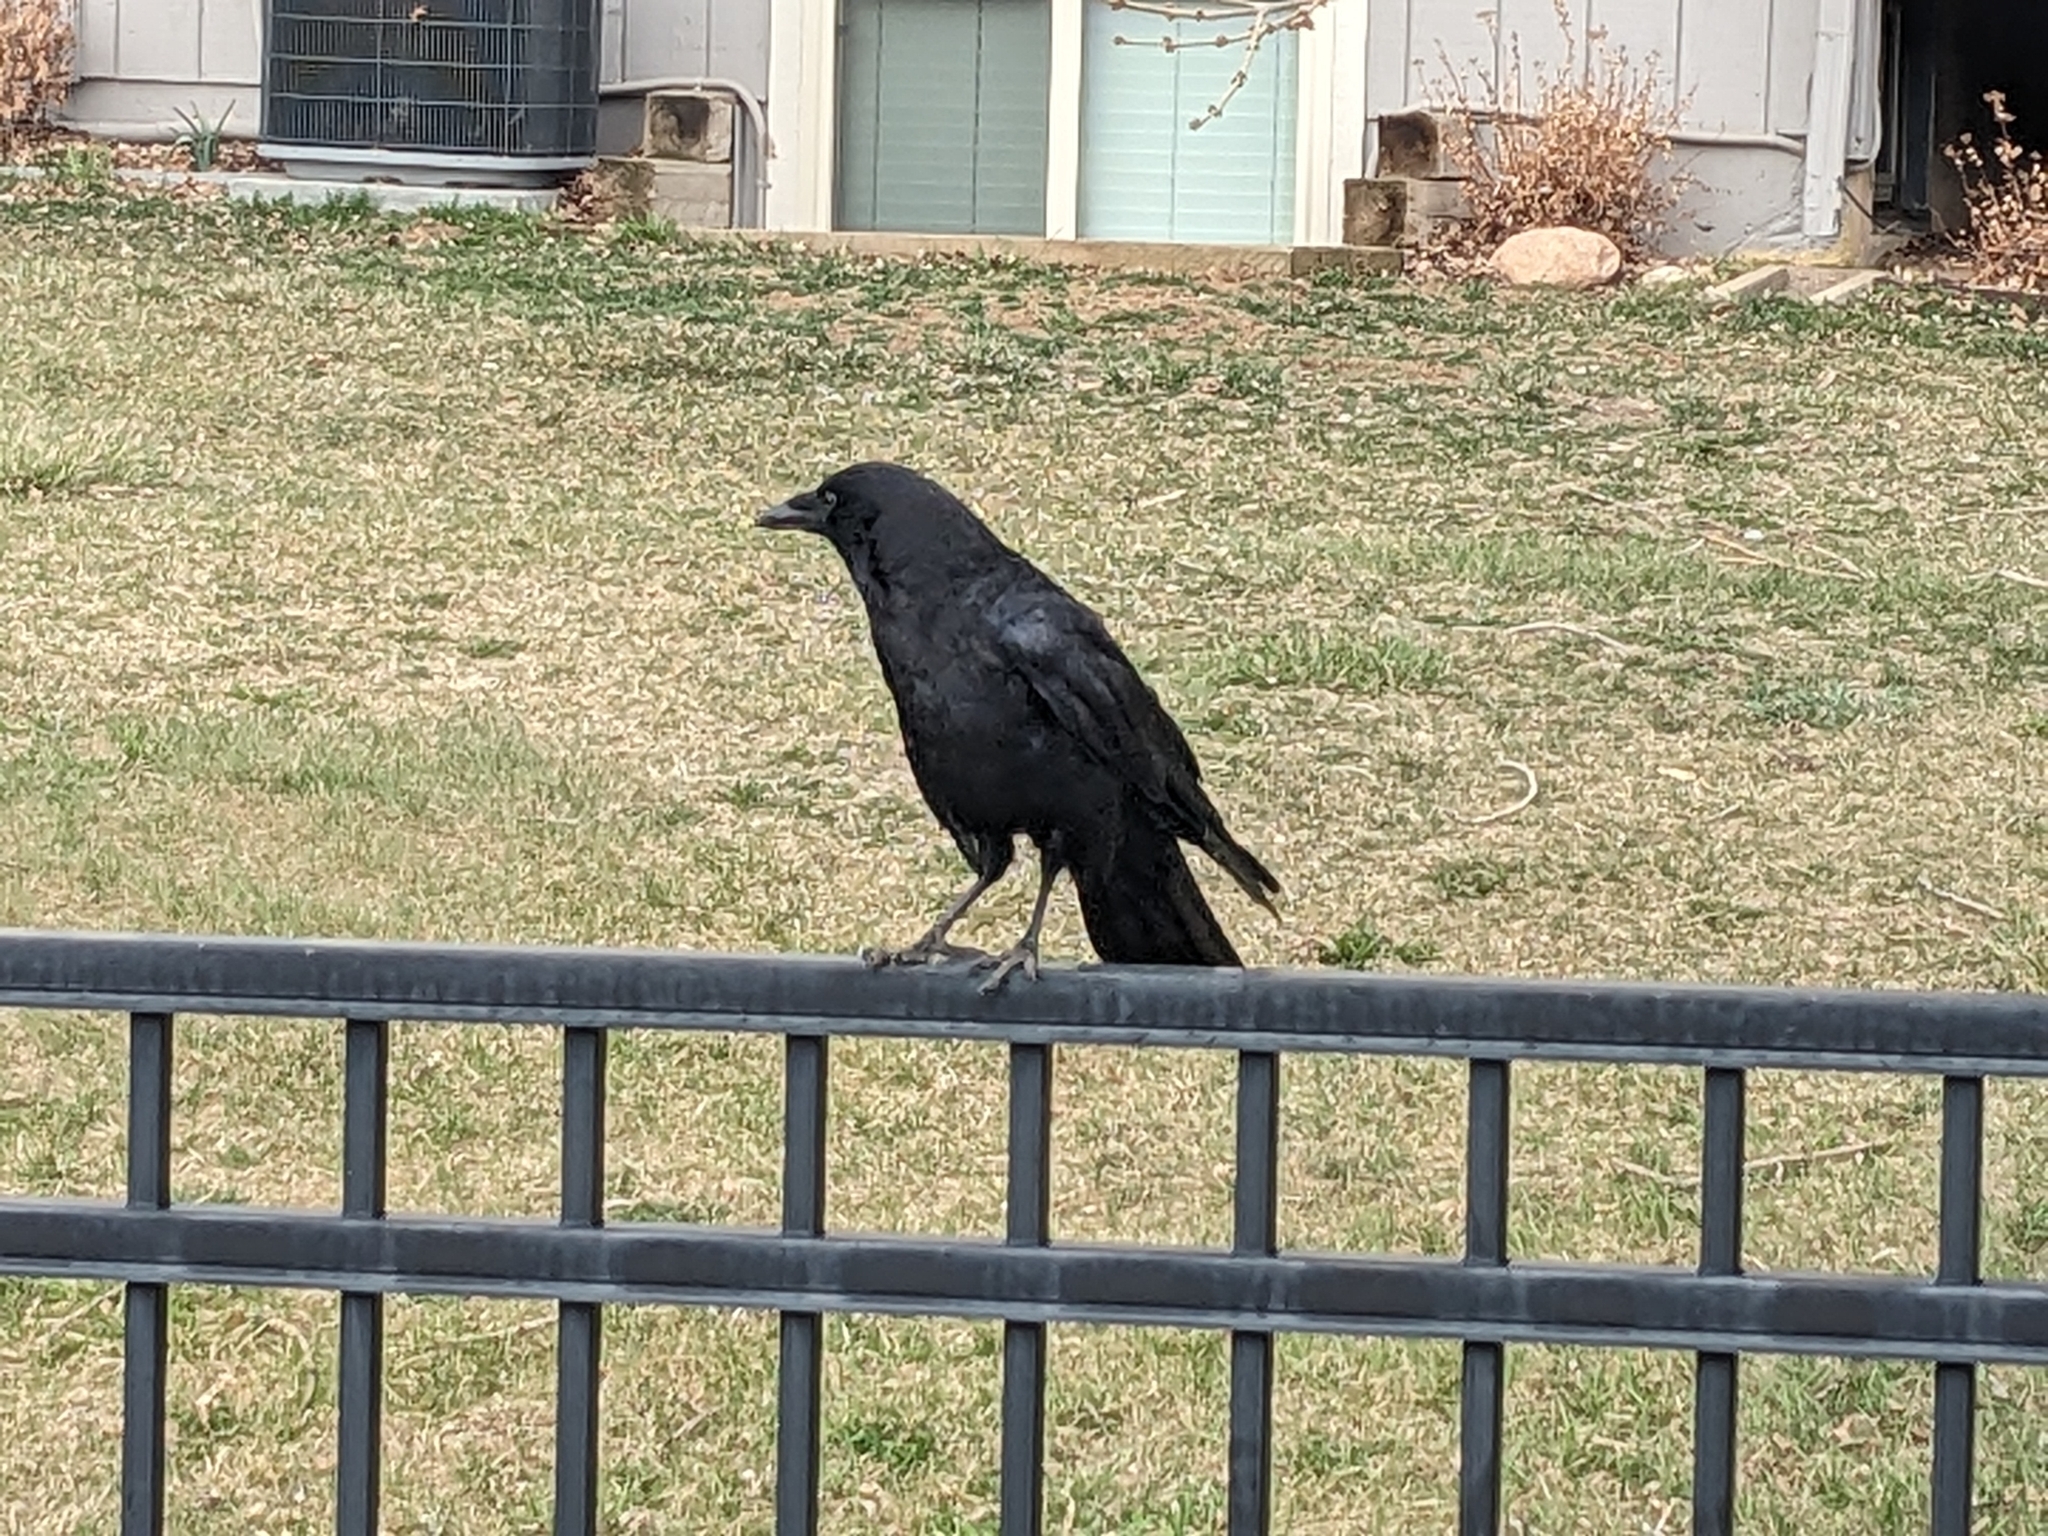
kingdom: Animalia
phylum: Chordata
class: Aves
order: Passeriformes
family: Corvidae
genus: Corvus
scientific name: Corvus brachyrhynchos
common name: American crow
